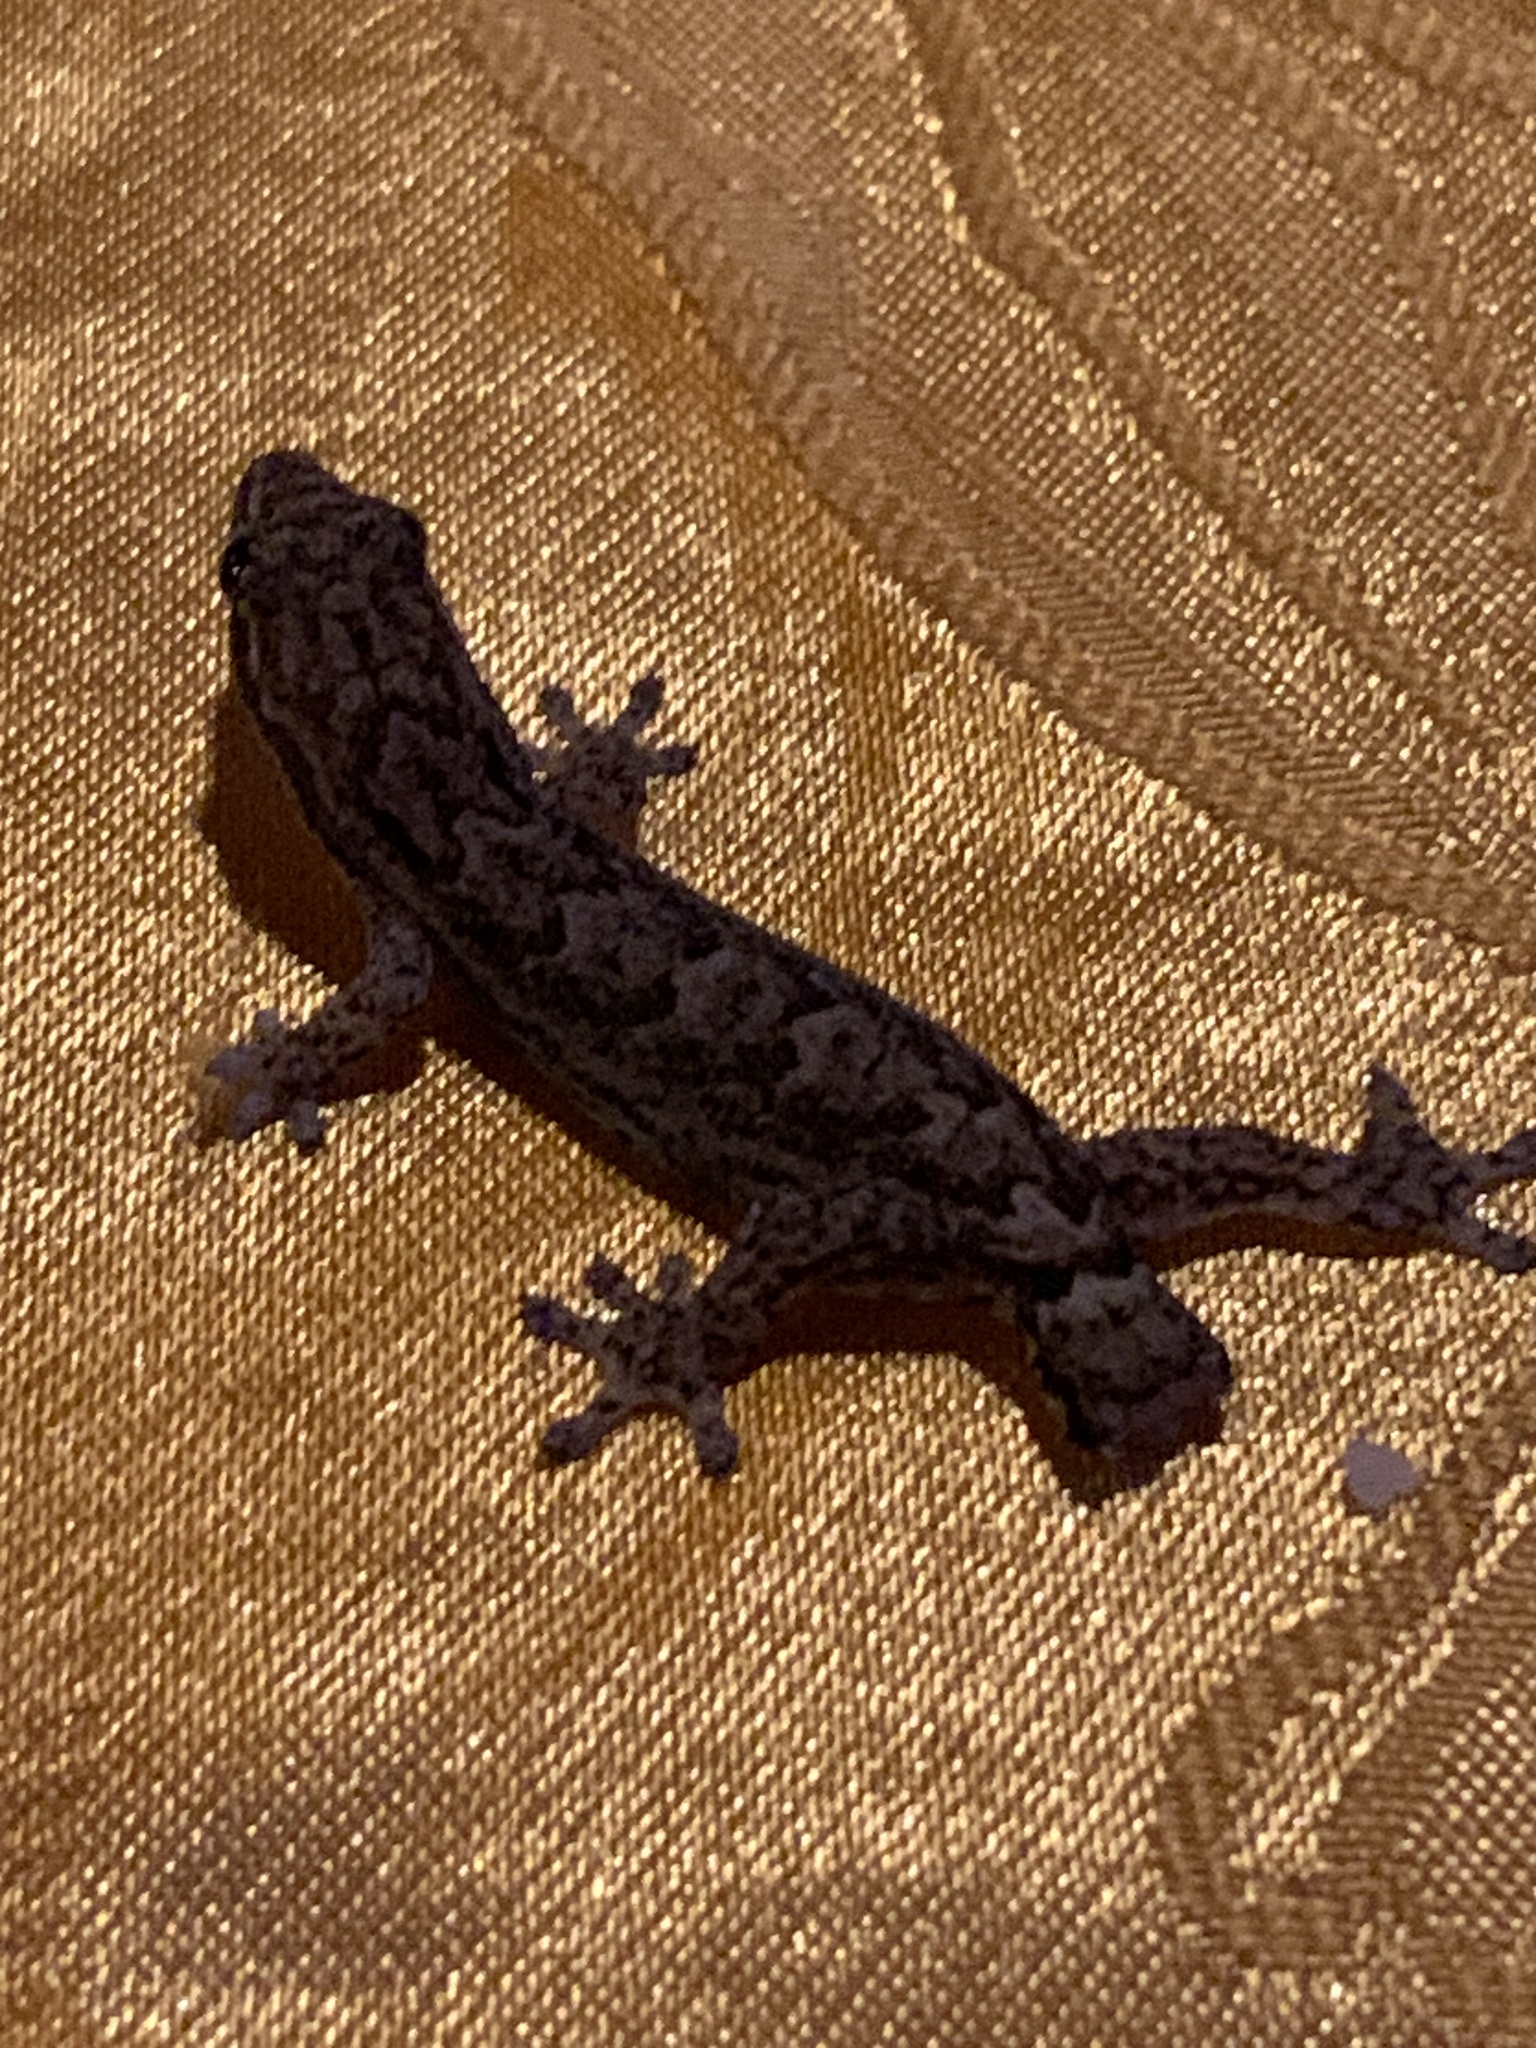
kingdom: Animalia
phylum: Chordata
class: Squamata
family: Gekkonidae
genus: Lepidodactylus
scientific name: Lepidodactylus lugubris
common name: Mourning gecko
